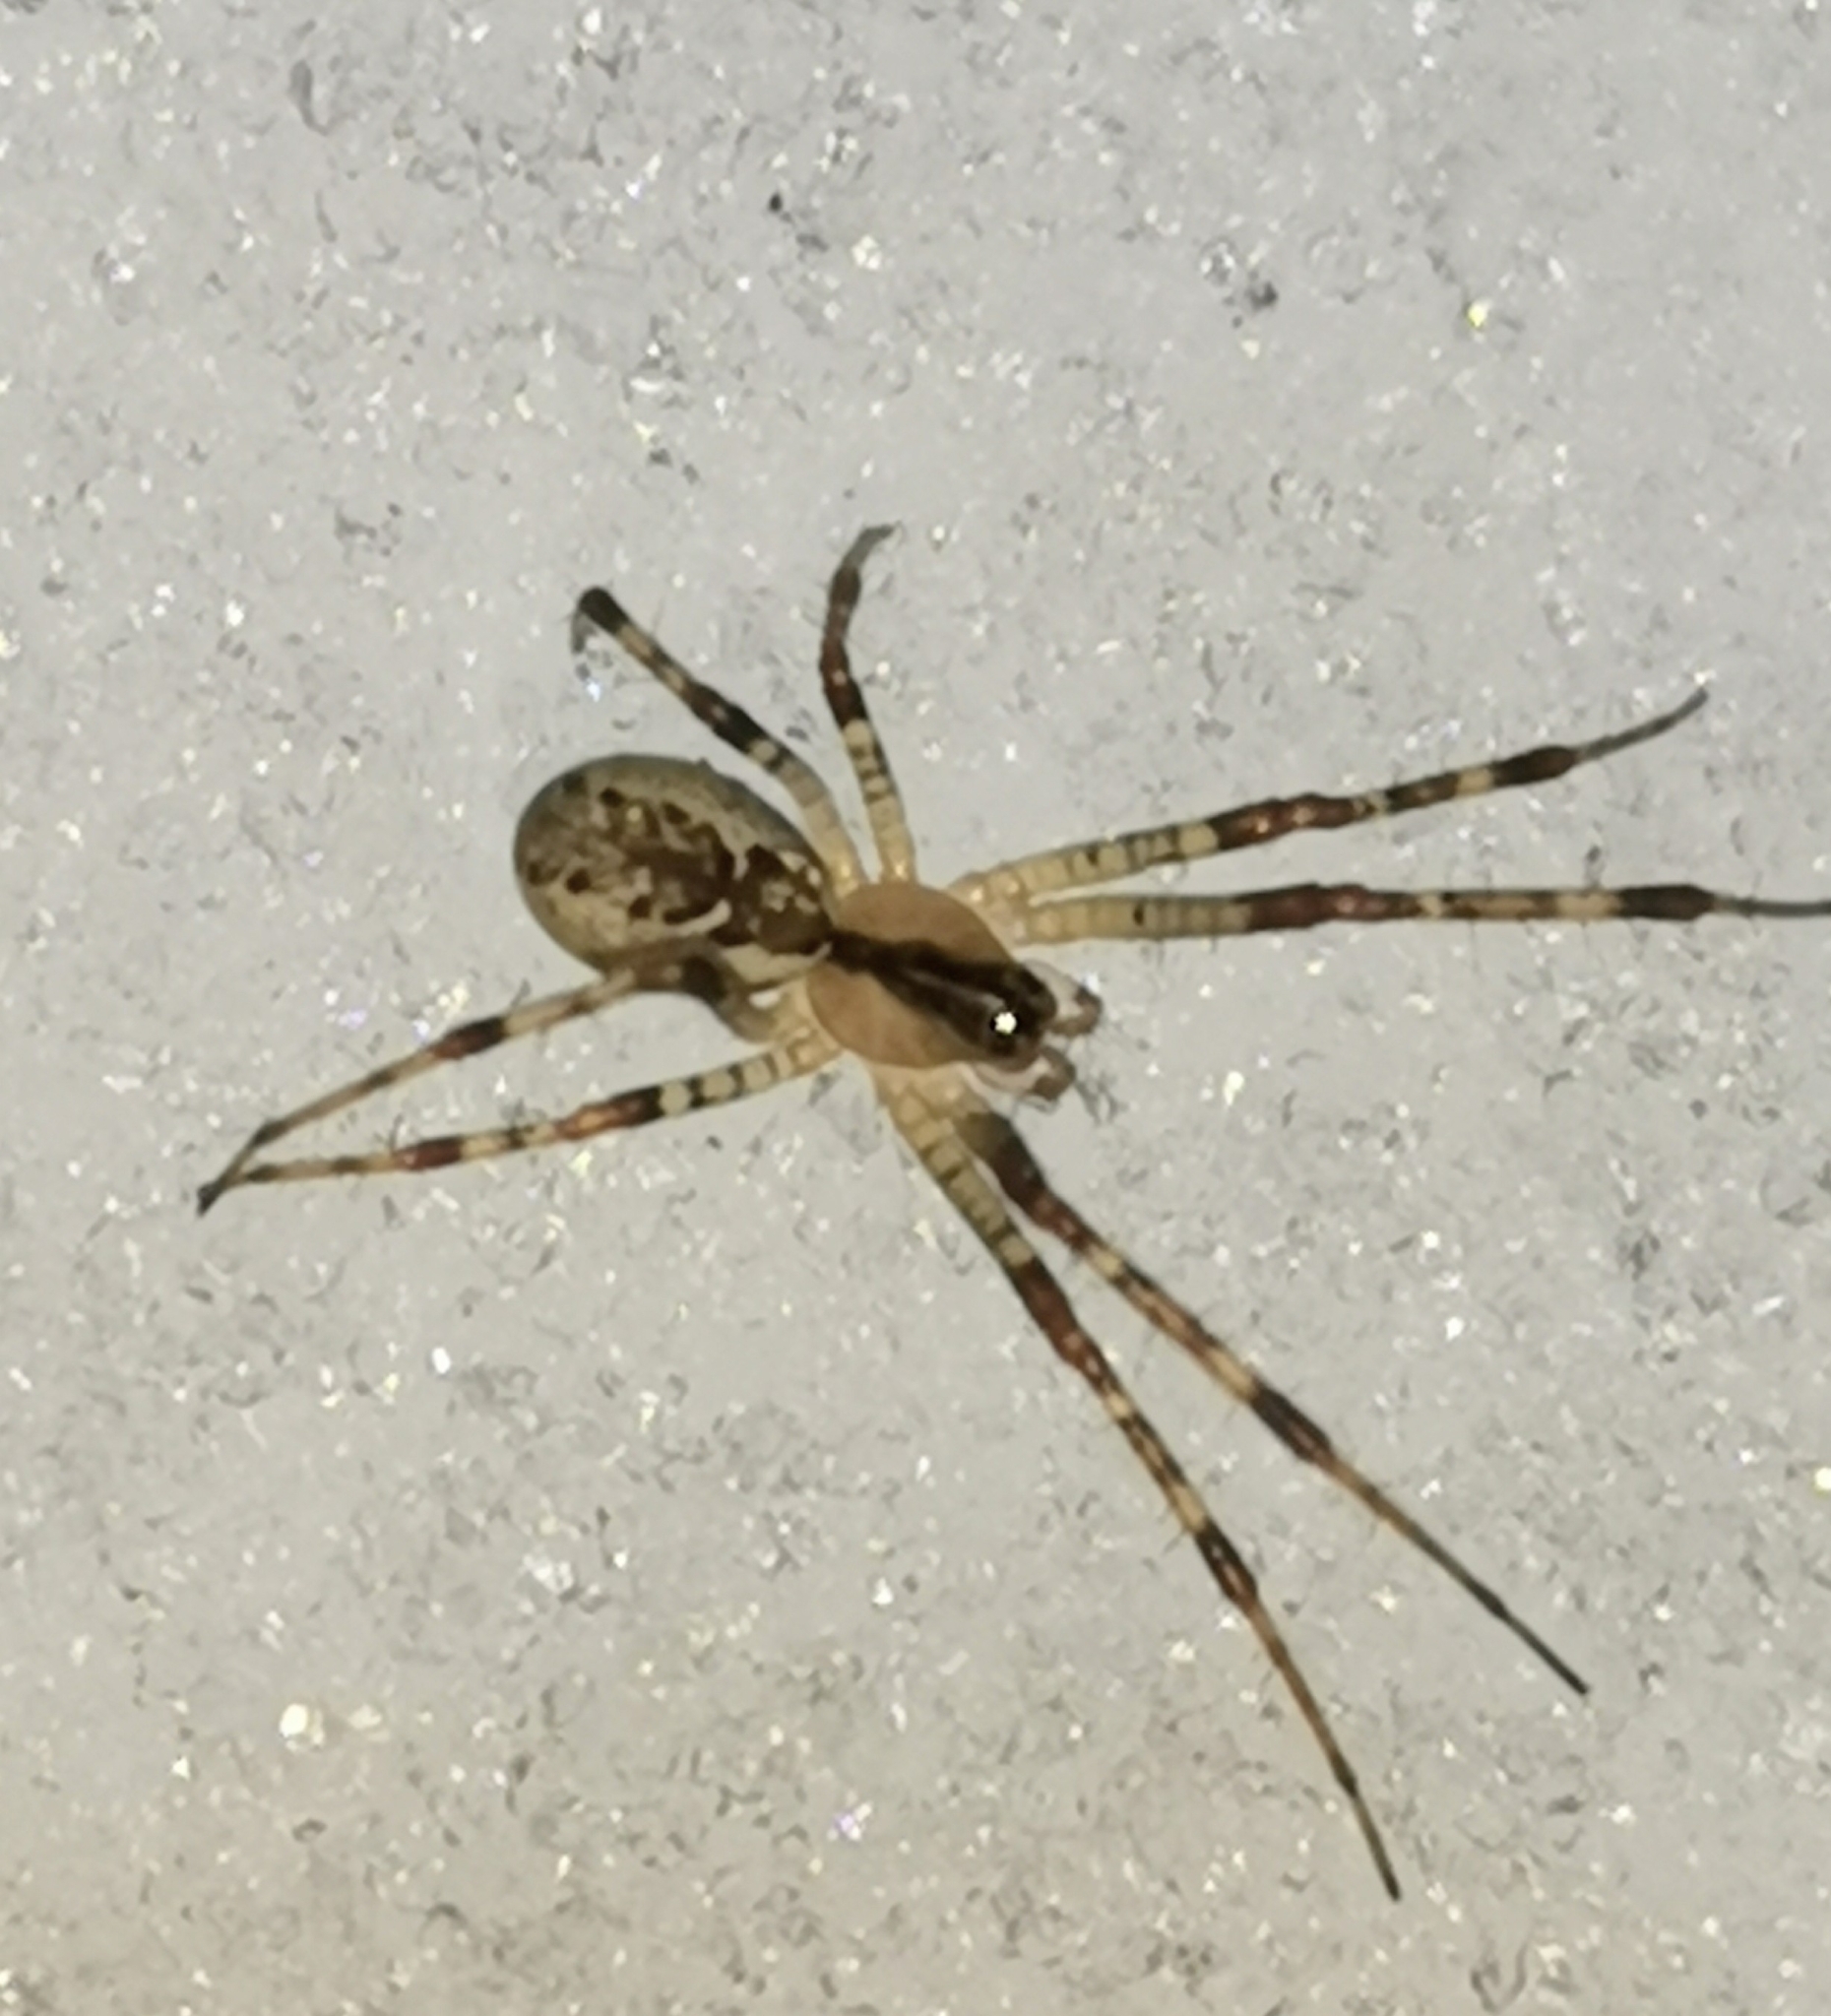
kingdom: Animalia
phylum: Arthropoda
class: Arachnida
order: Araneae
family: Linyphiidae
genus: Pityohyphantes
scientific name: Pityohyphantes phrygianus
